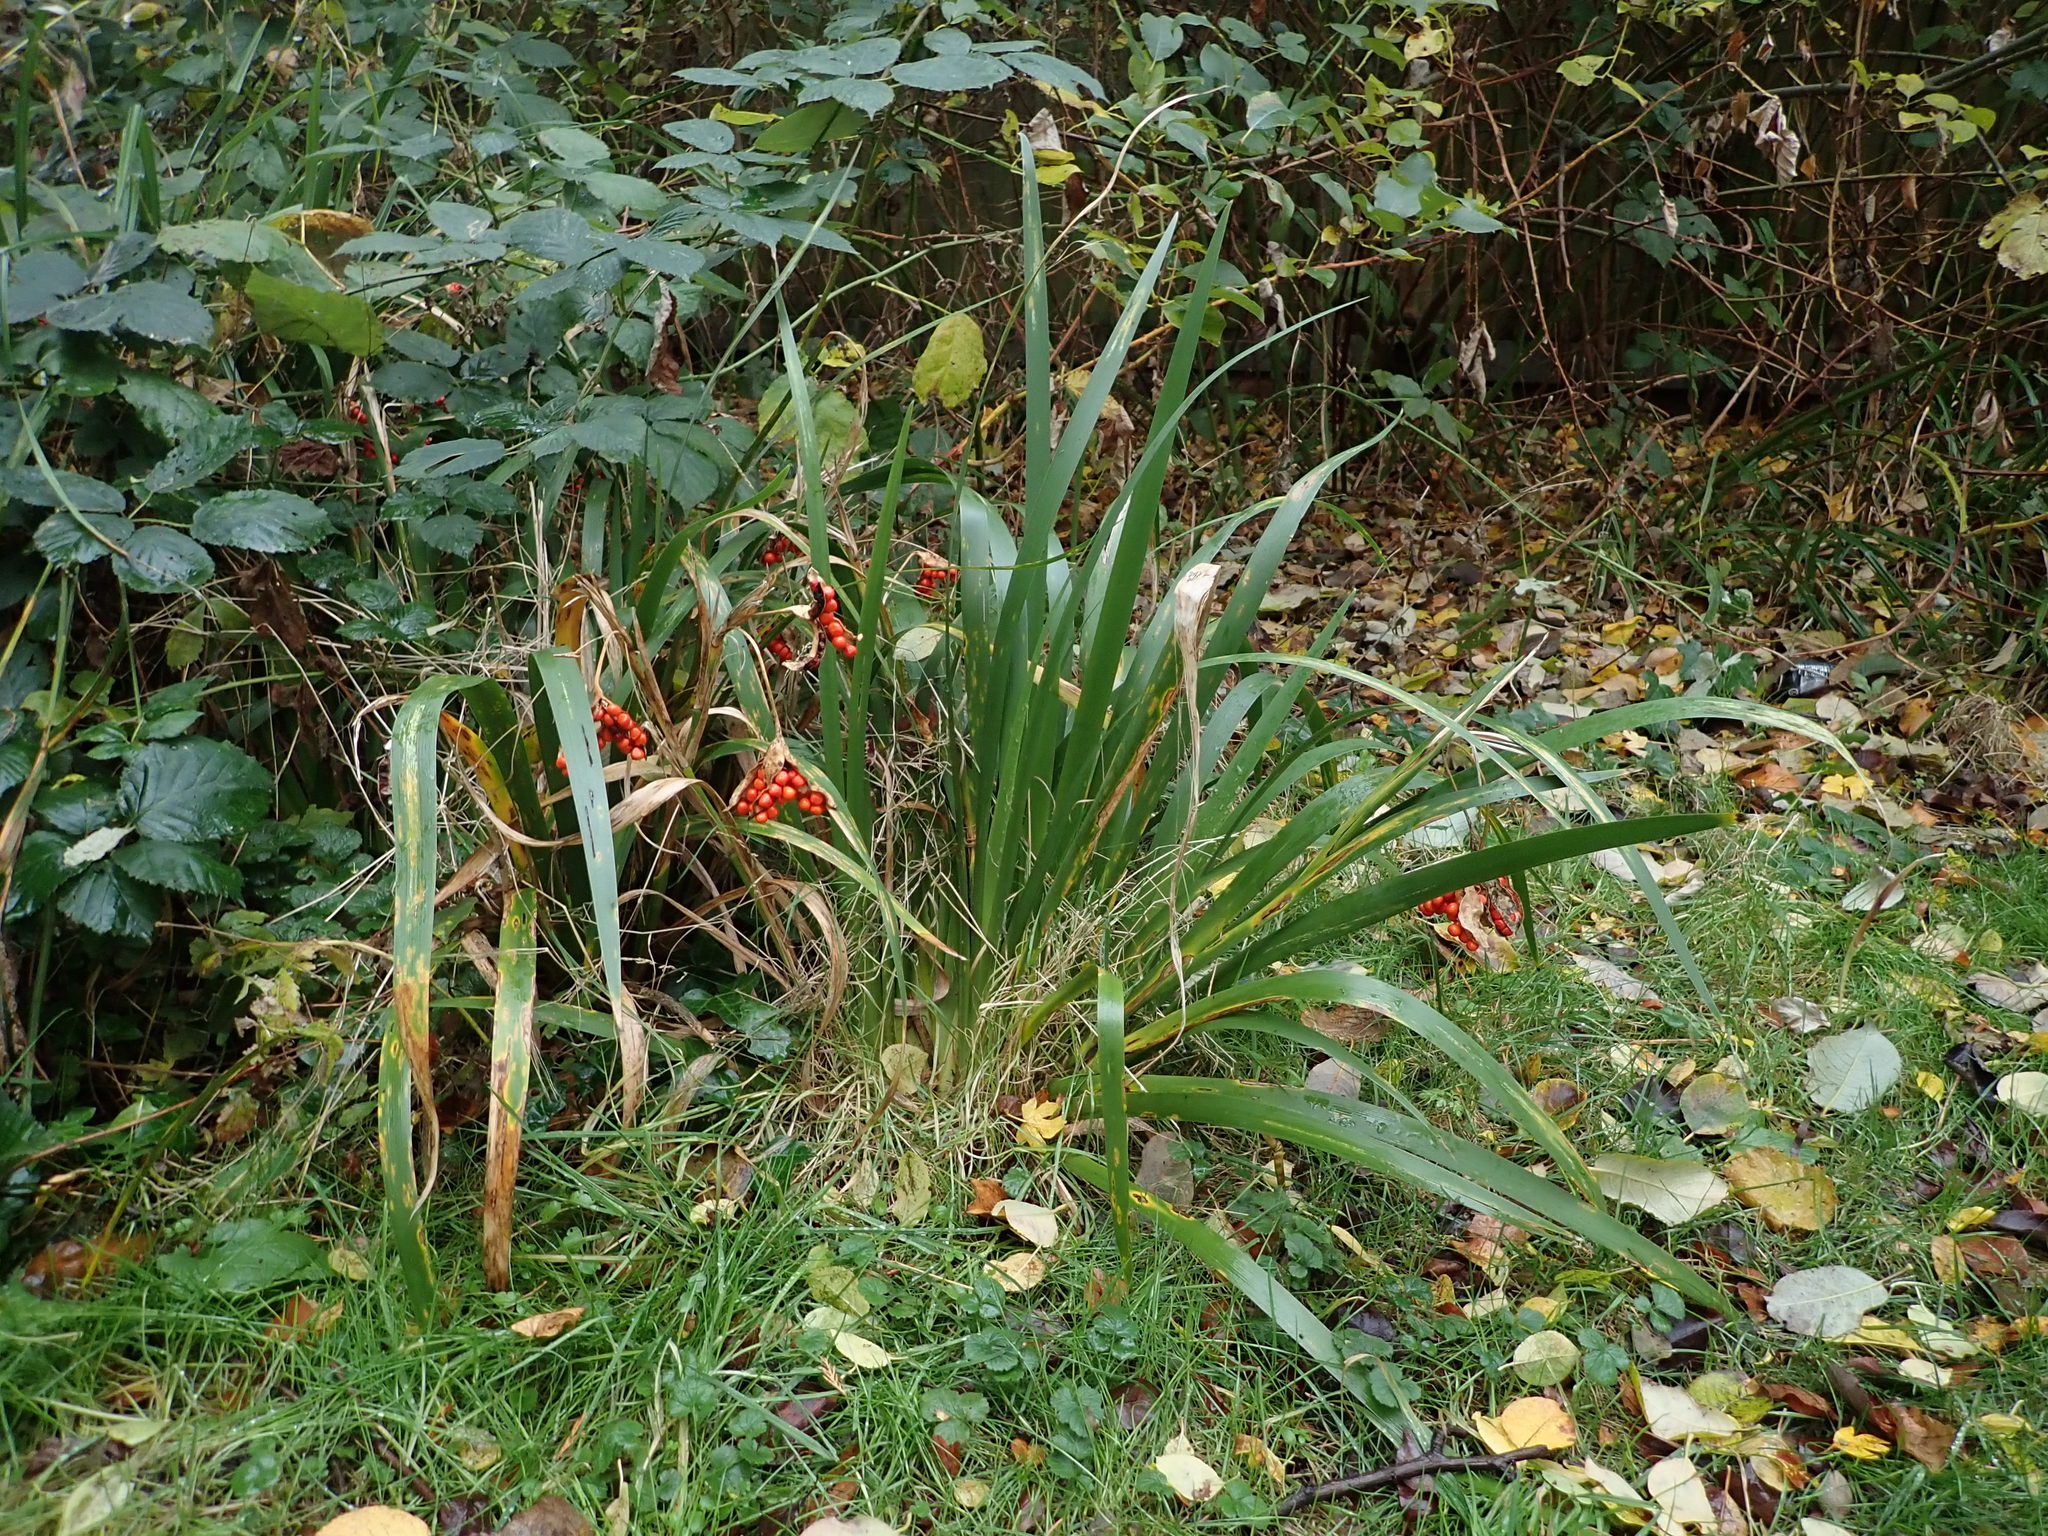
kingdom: Plantae
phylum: Tracheophyta
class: Liliopsida
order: Asparagales
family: Iridaceae
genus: Iris
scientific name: Iris foetidissima
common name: Stinking iris
